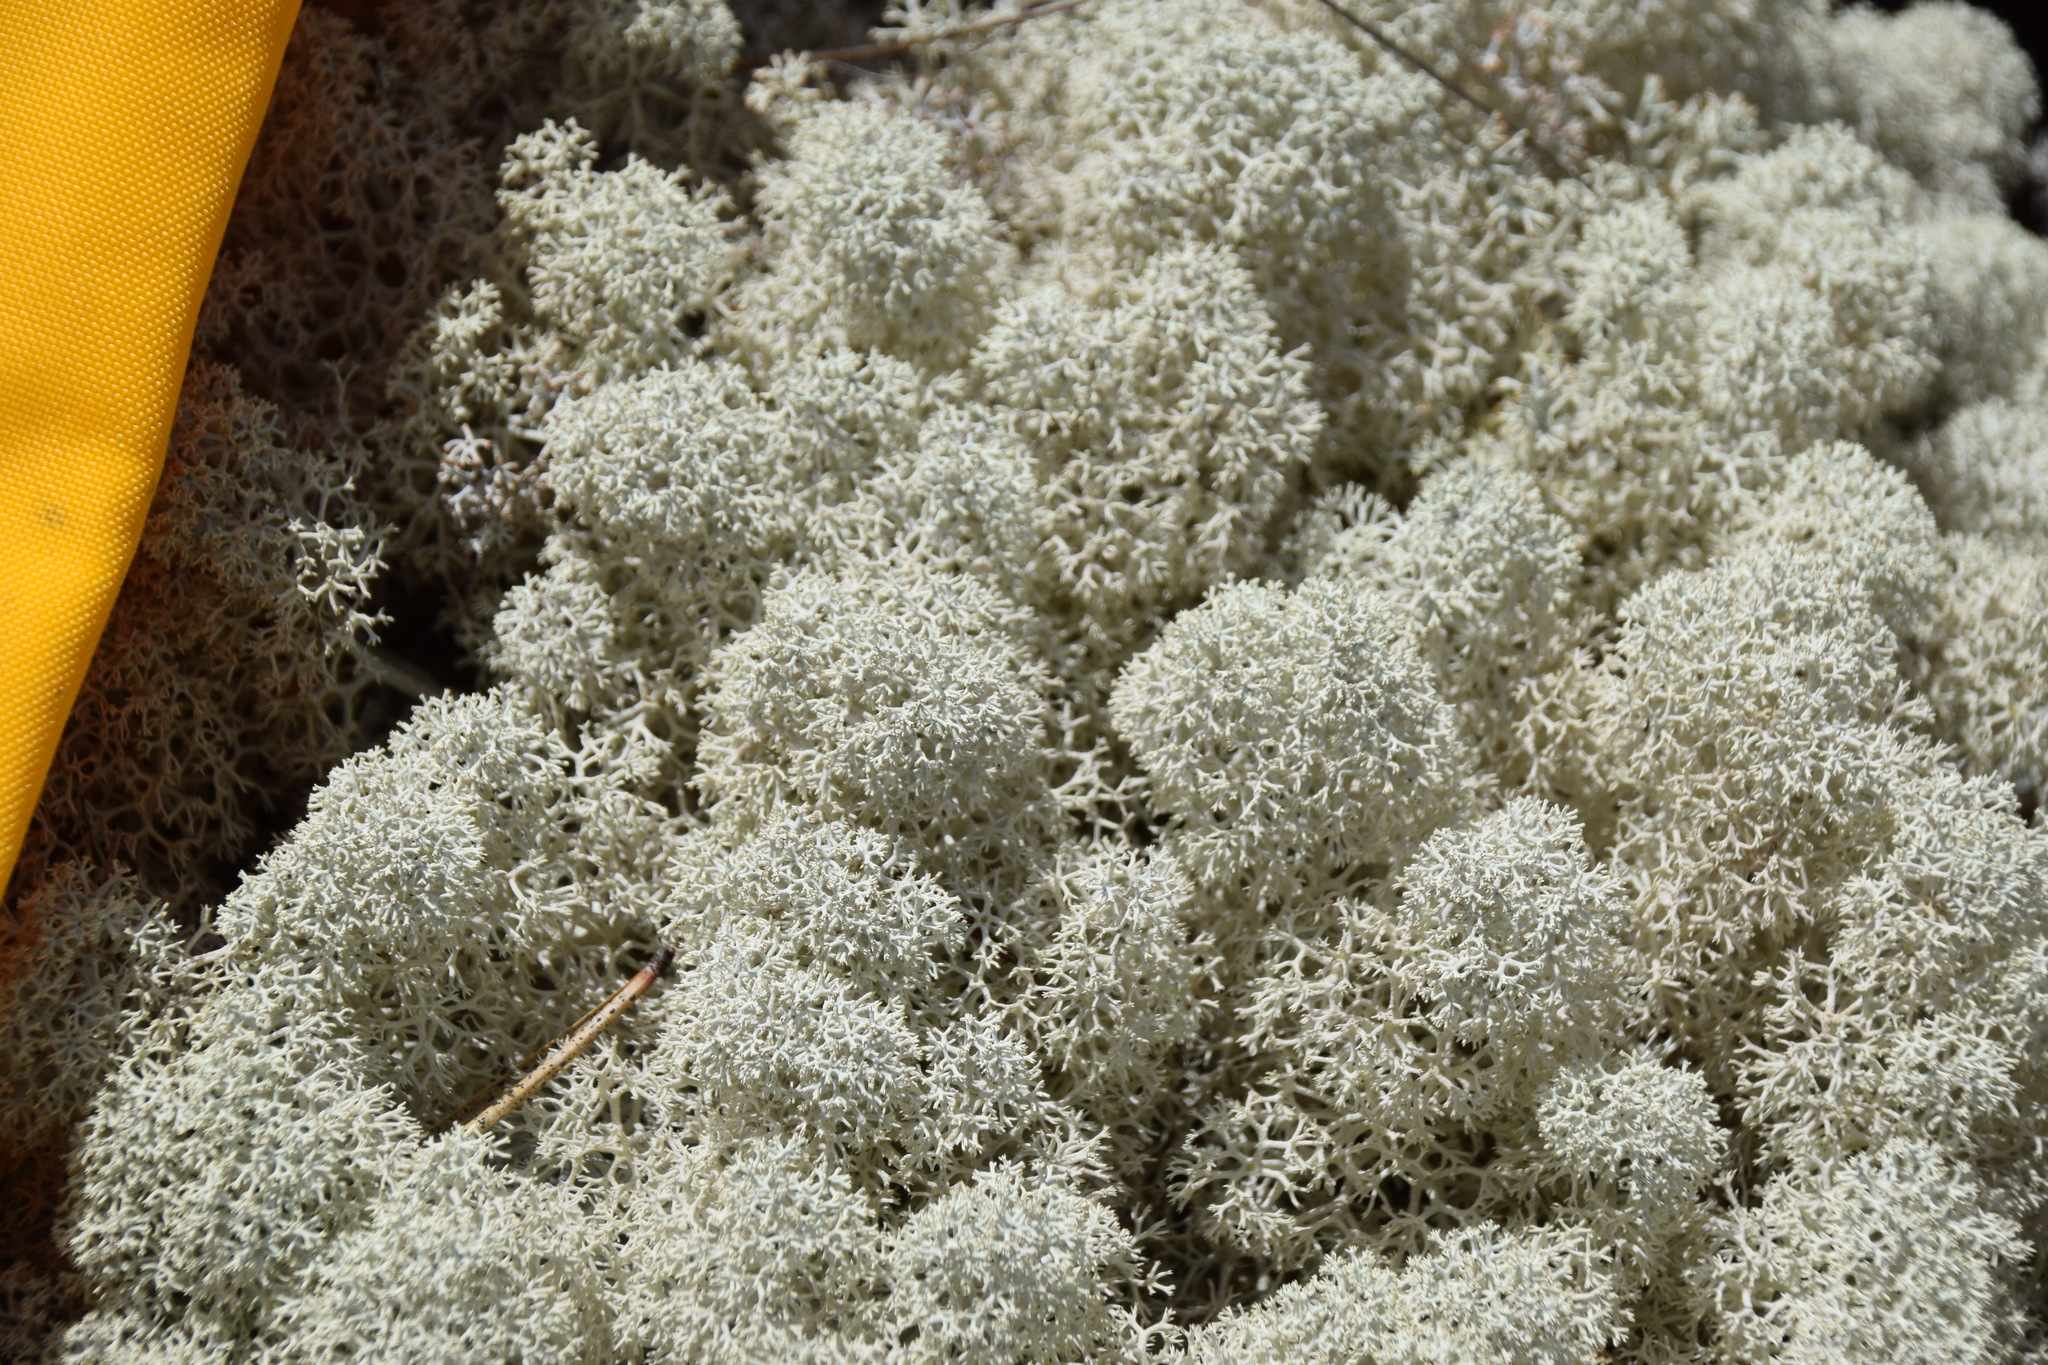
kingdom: Fungi
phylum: Ascomycota
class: Lecanoromycetes
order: Lecanorales
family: Cladoniaceae
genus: Cladonia
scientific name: Cladonia stellaris
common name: Star-tipped reindeer lichen
